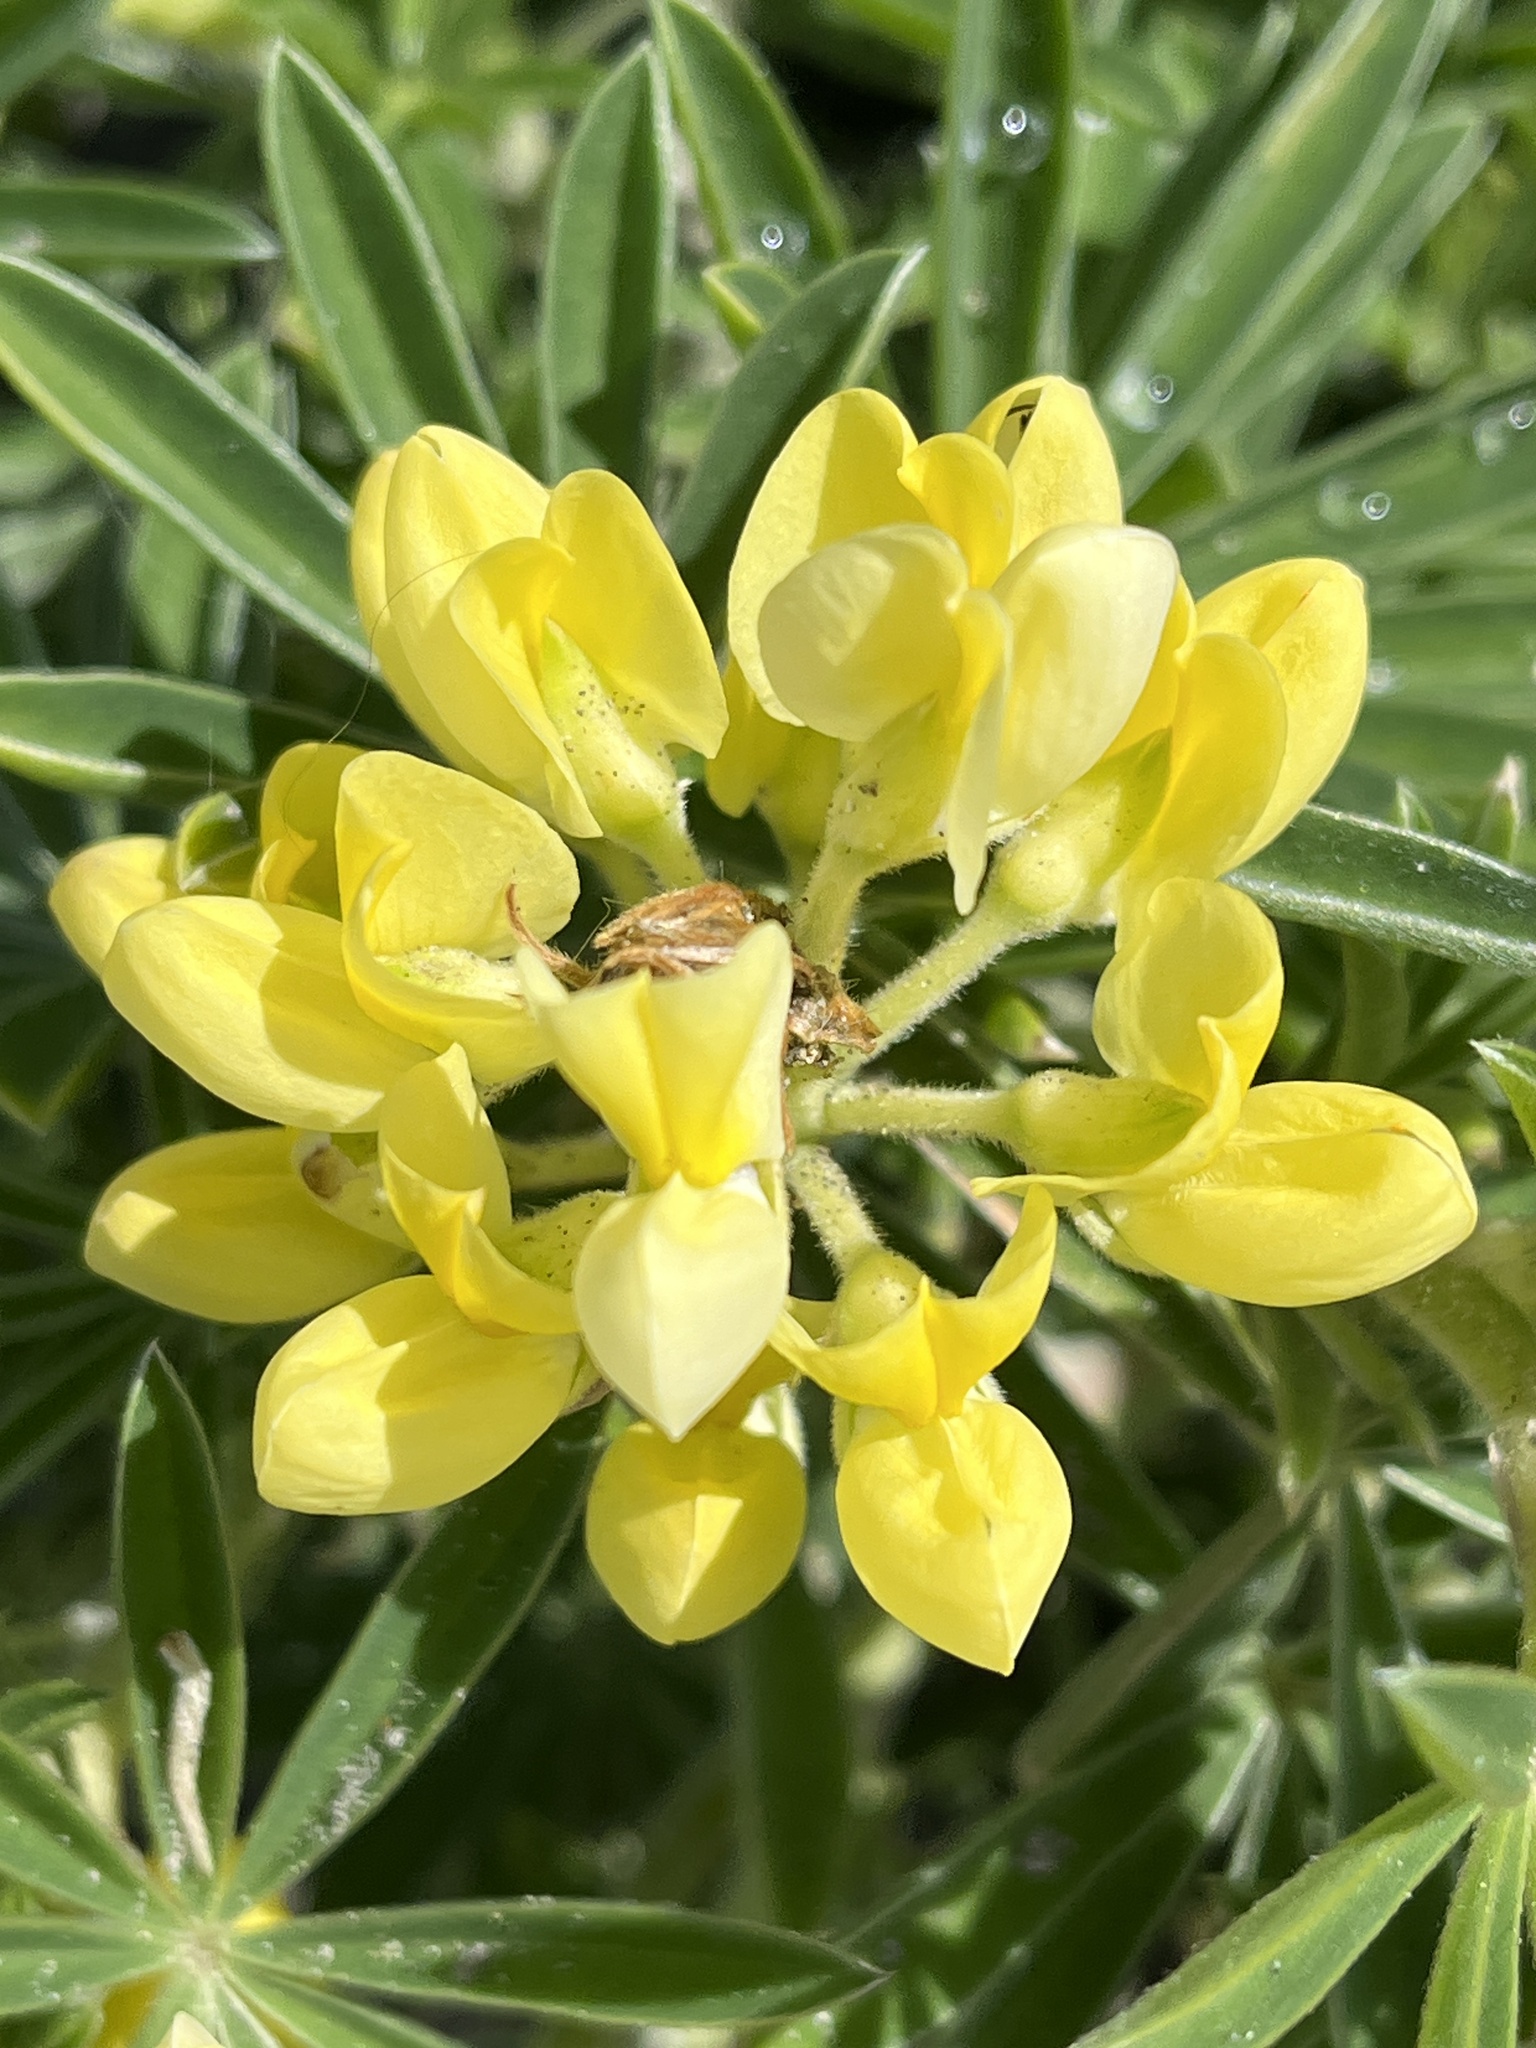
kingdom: Plantae
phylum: Tracheophyta
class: Magnoliopsida
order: Fabales
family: Fabaceae
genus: Lupinus
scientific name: Lupinus arboreus
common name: Yellow bush lupine
